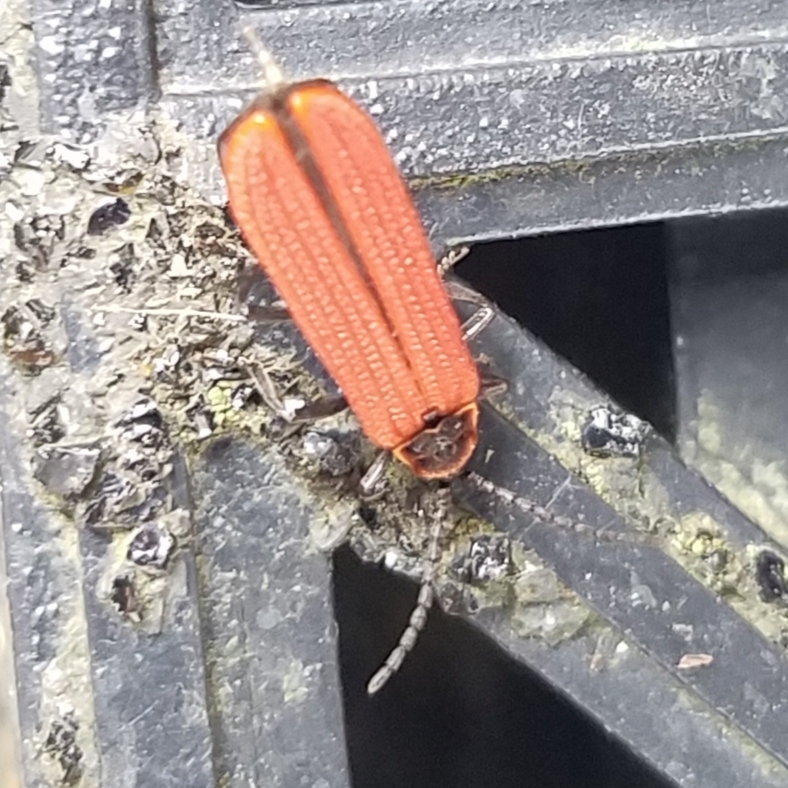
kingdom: Animalia
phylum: Arthropoda
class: Insecta
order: Coleoptera
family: Lycidae
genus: Dictyoptera
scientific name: Dictyoptera aurora
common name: Golden net-winged beetle
